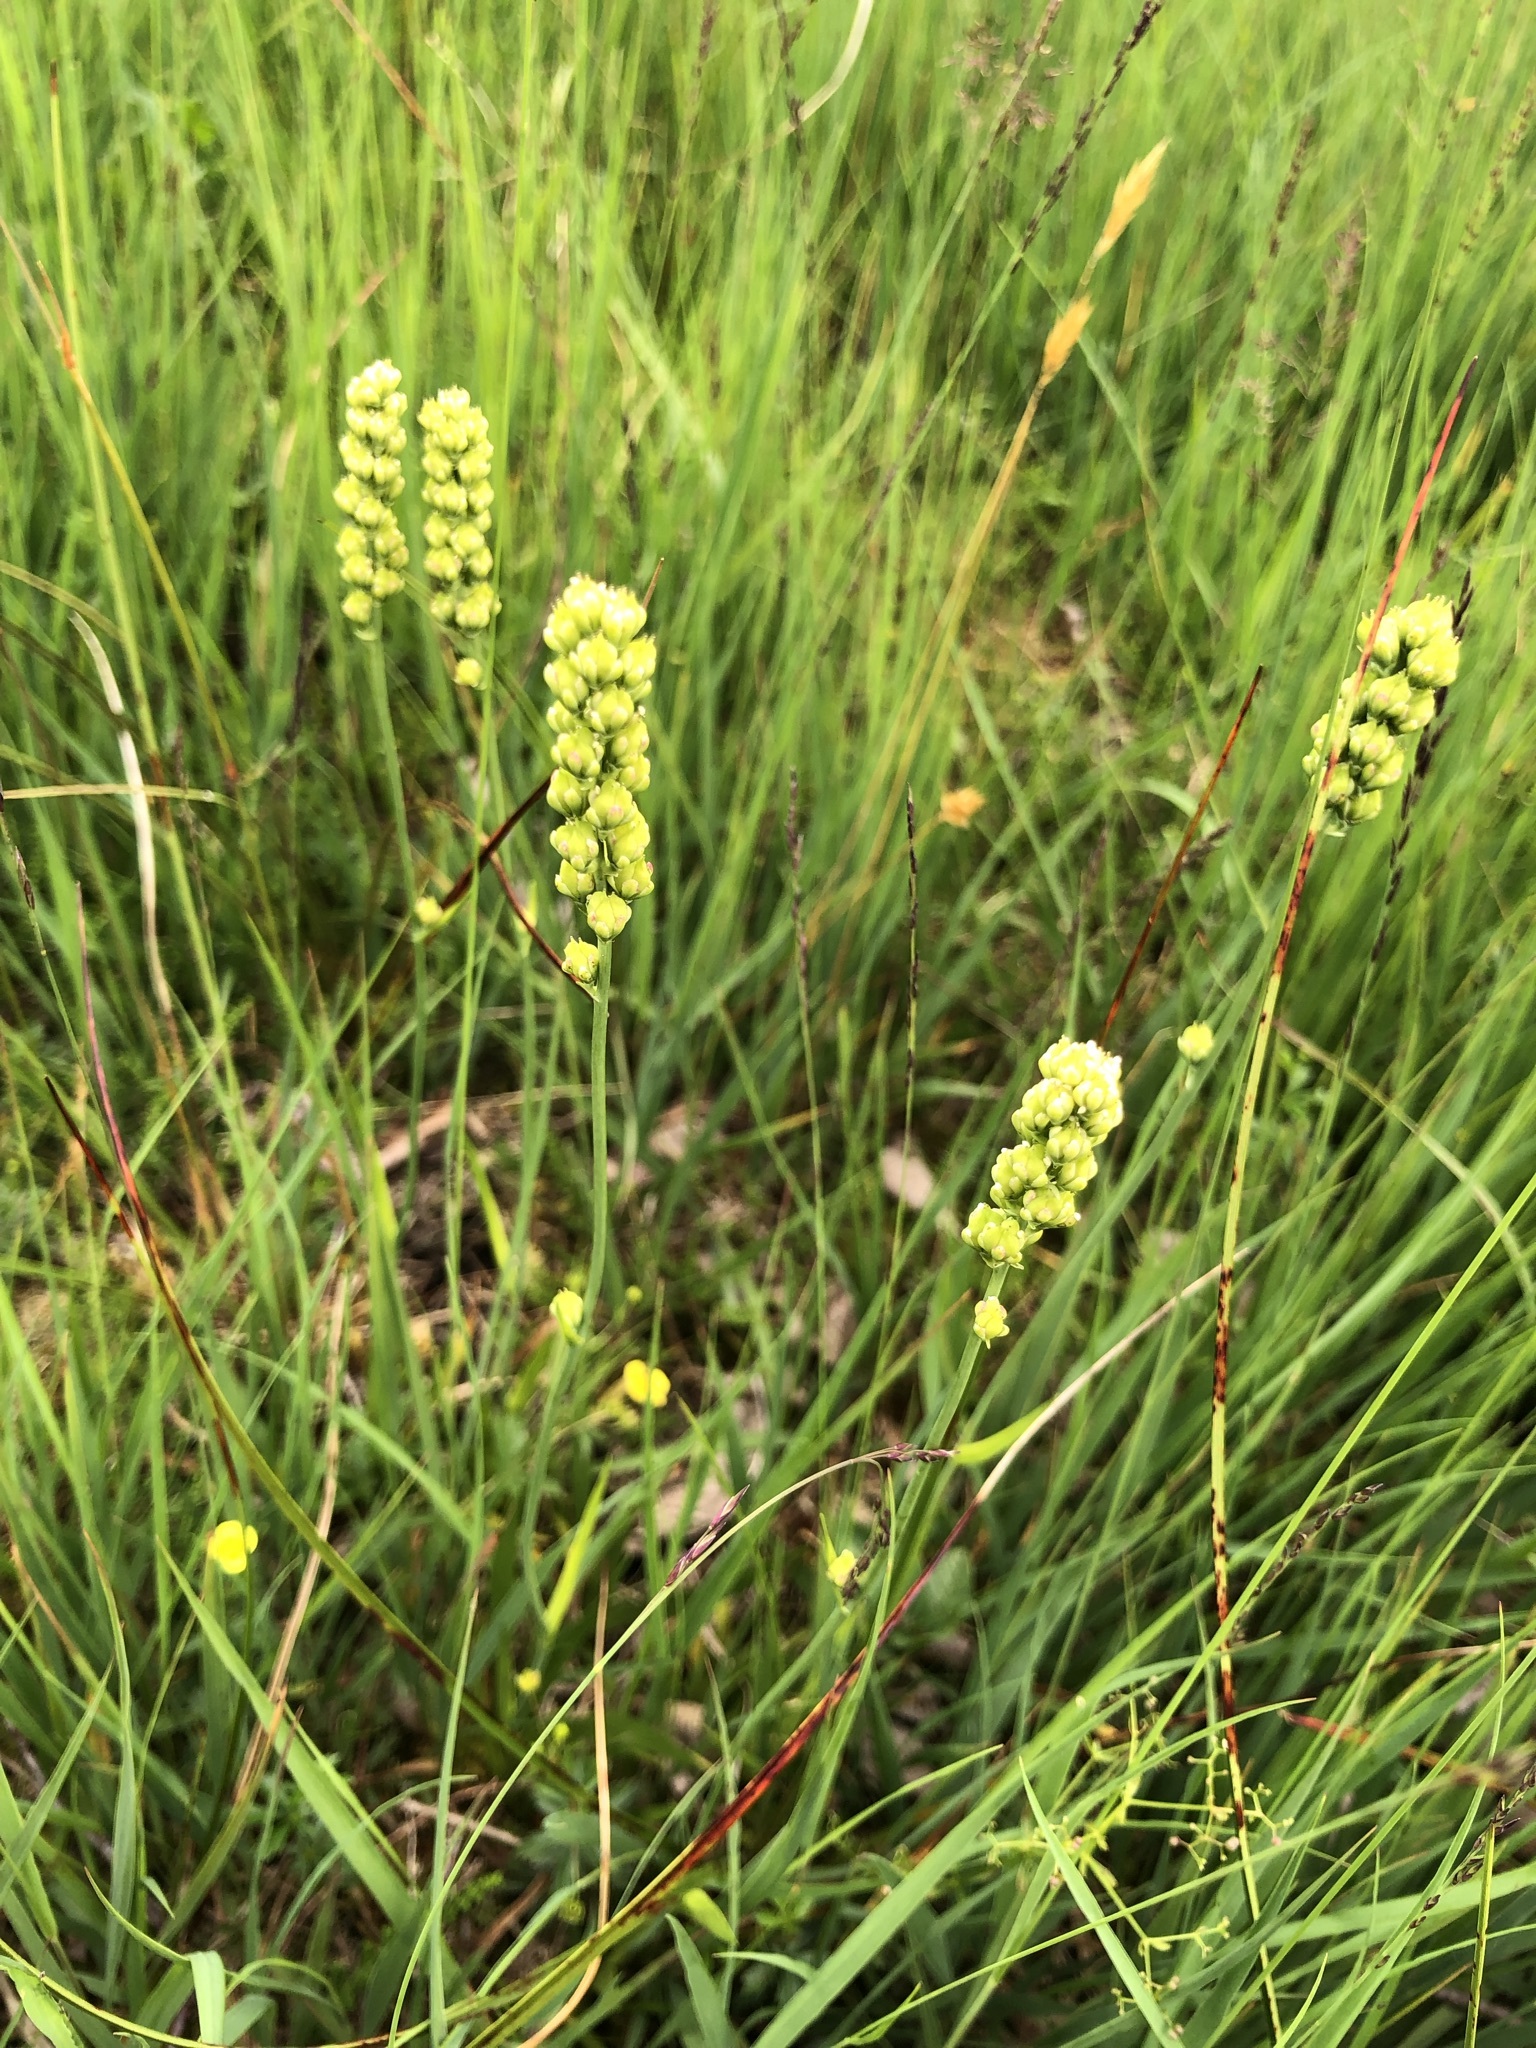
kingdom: Plantae
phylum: Tracheophyta
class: Liliopsida
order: Alismatales
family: Tofieldiaceae
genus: Tofieldia
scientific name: Tofieldia calyculata
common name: German-asphodel
